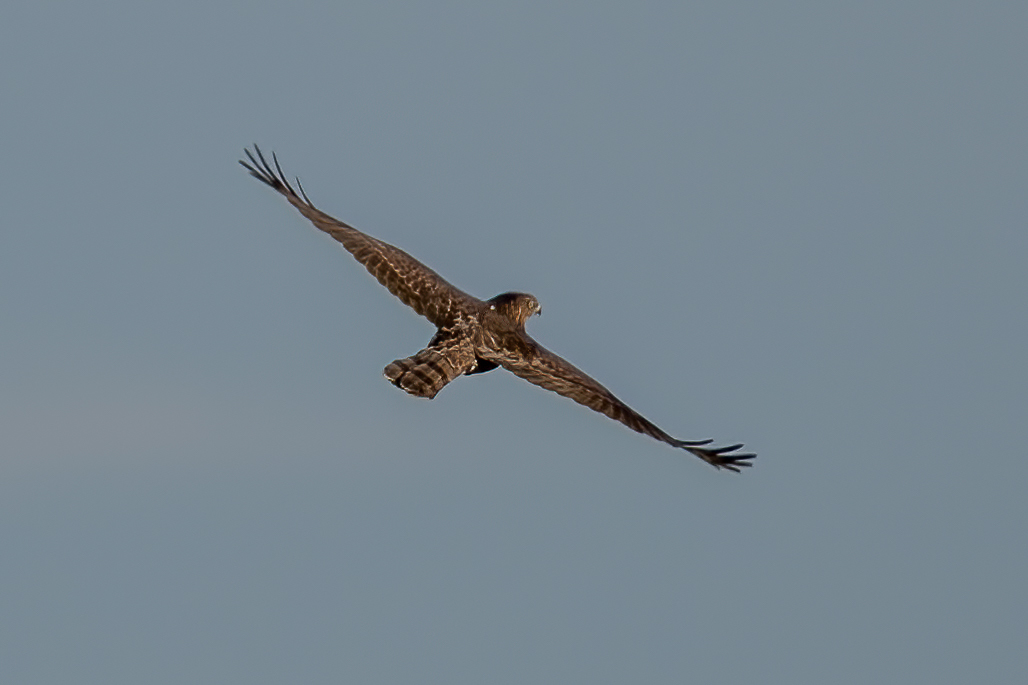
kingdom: Animalia
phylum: Chordata
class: Aves
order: Accipitriformes
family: Accipitridae
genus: Accipiter
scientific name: Accipiter cooperii
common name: Cooper's hawk
